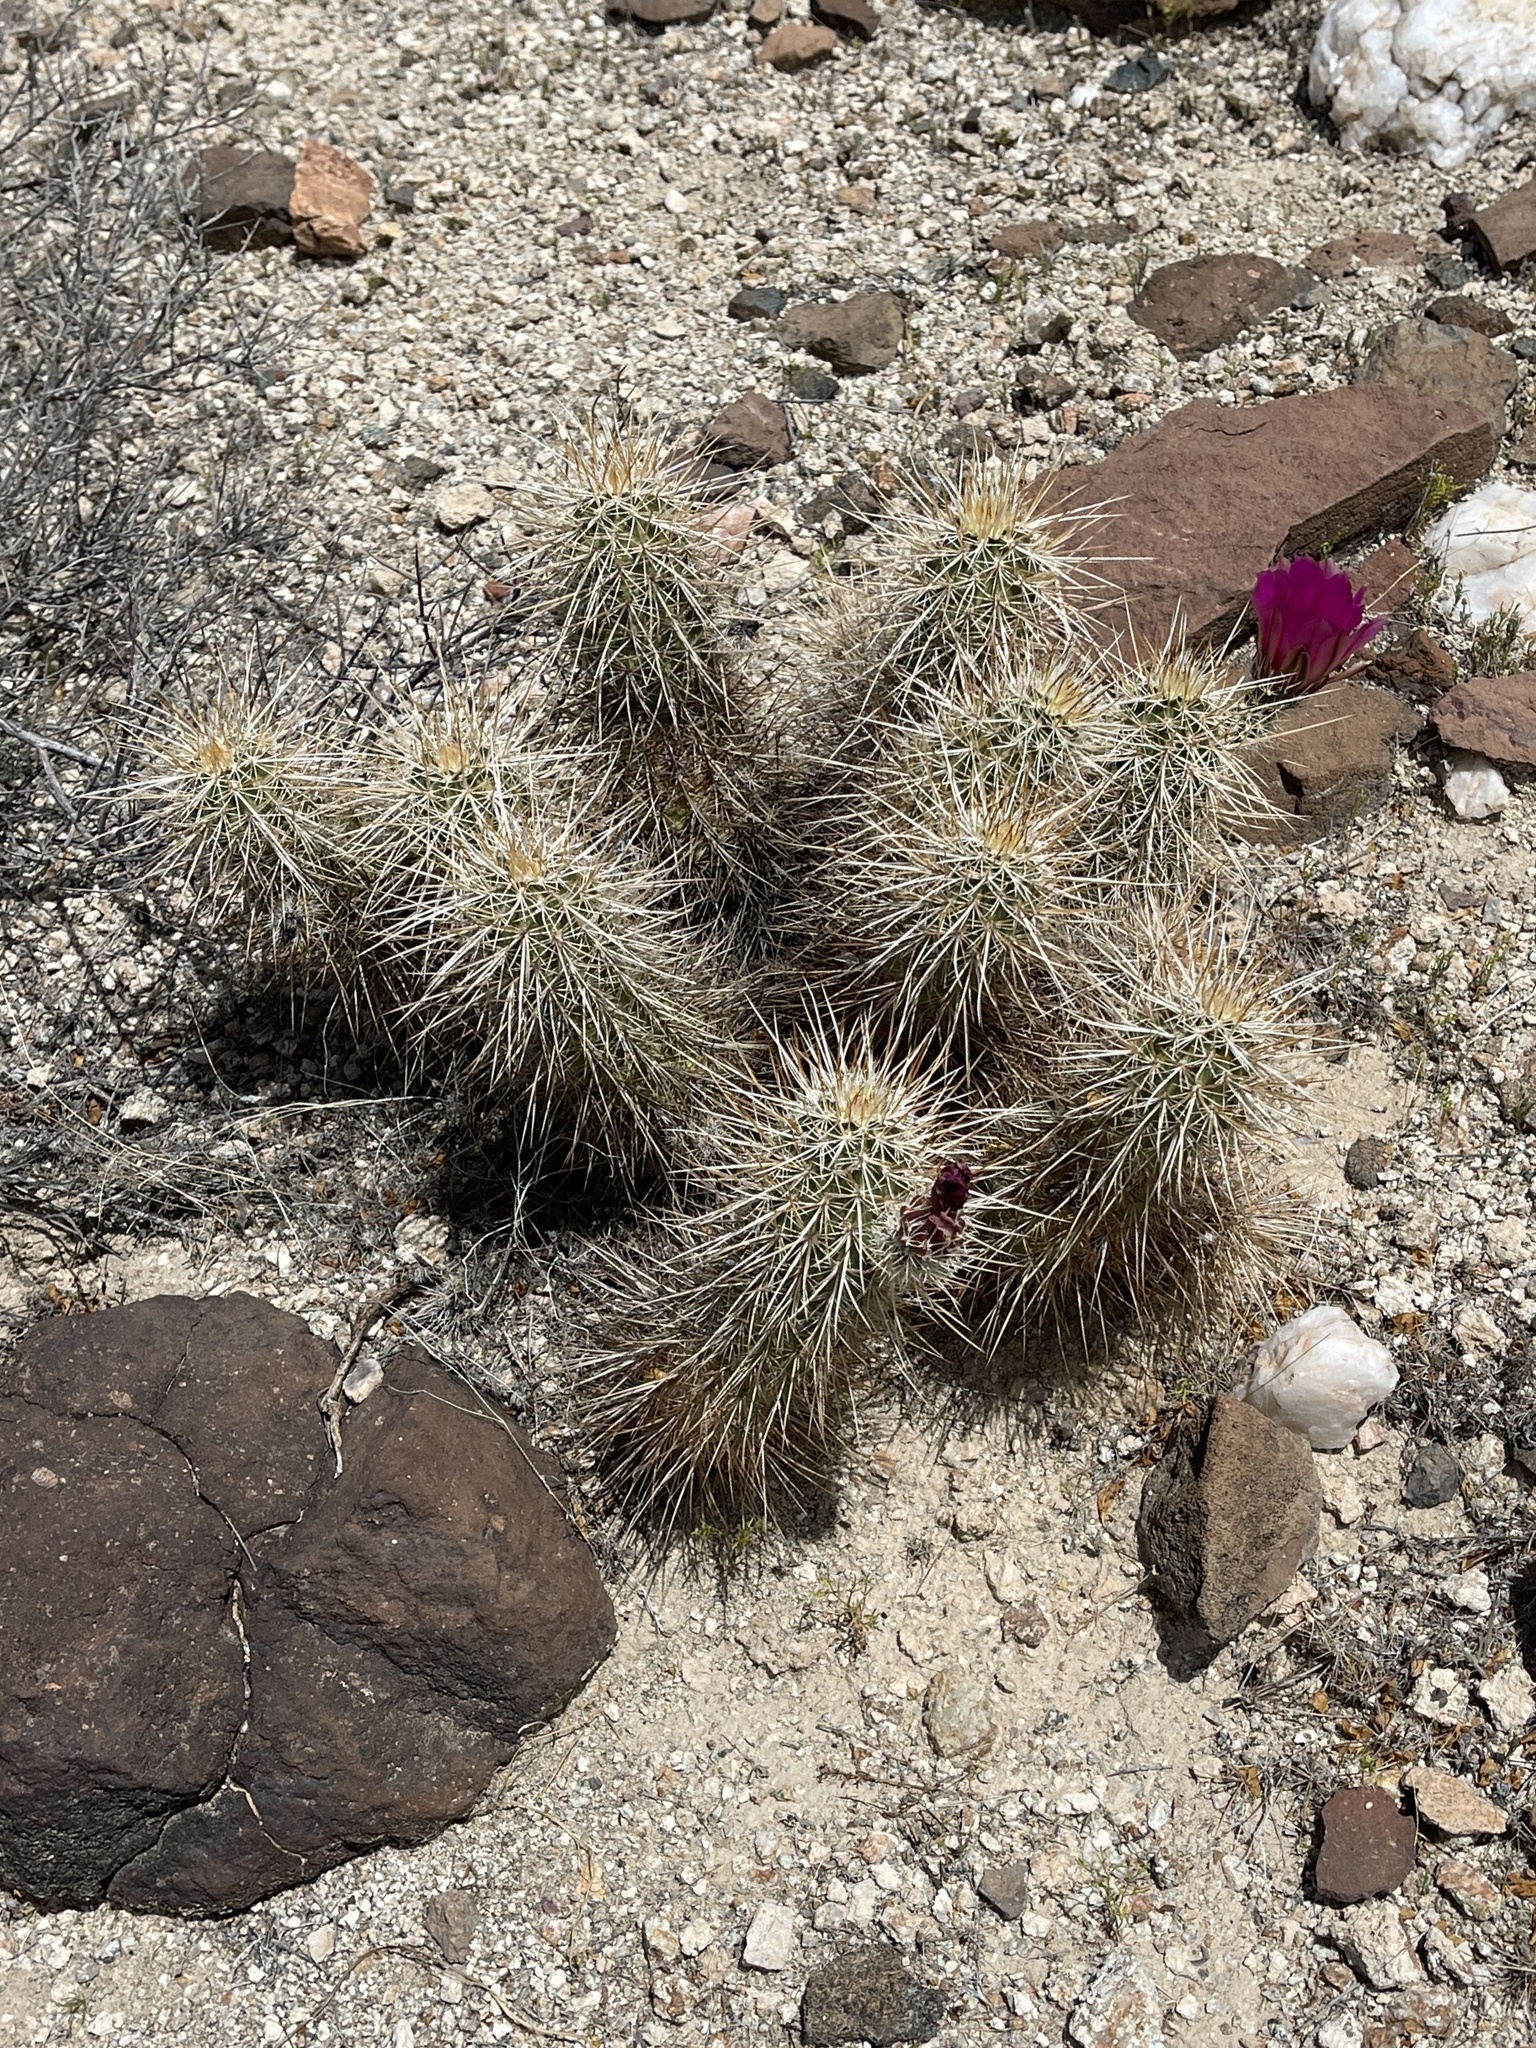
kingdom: Plantae
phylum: Tracheophyta
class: Magnoliopsida
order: Caryophyllales
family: Cactaceae
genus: Echinocereus
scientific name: Echinocereus engelmannii
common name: Engelmann's hedgehog cactus
